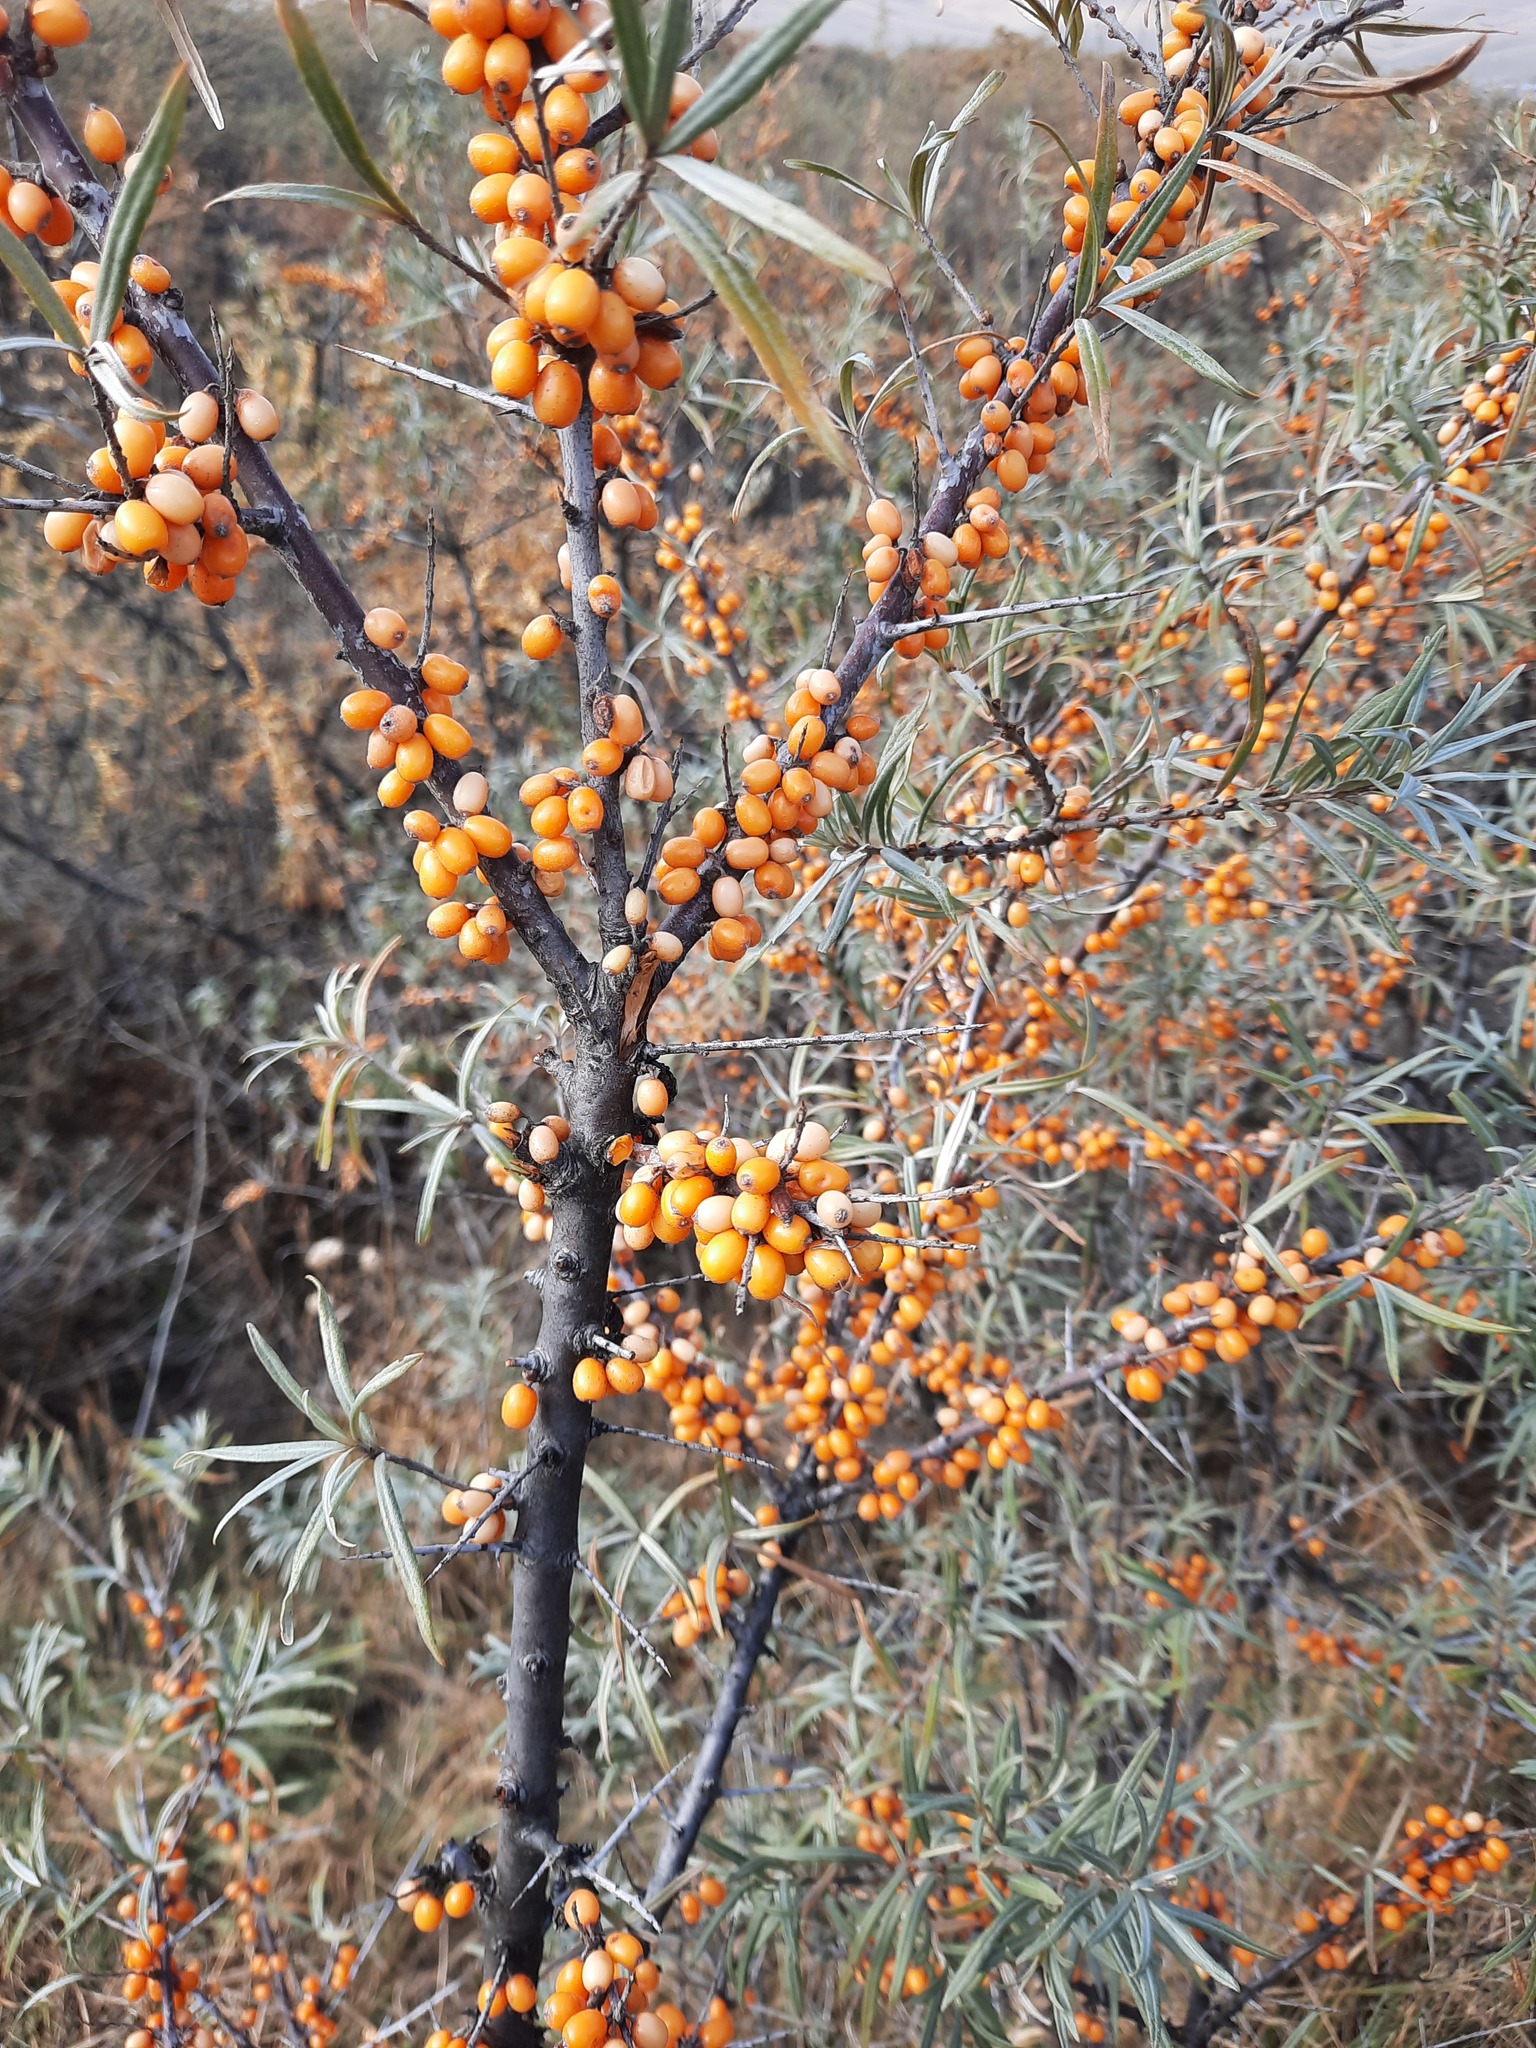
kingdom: Plantae
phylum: Tracheophyta
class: Magnoliopsida
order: Rosales
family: Elaeagnaceae
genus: Hippophae
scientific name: Hippophae rhamnoides
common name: Sea-buckthorn
